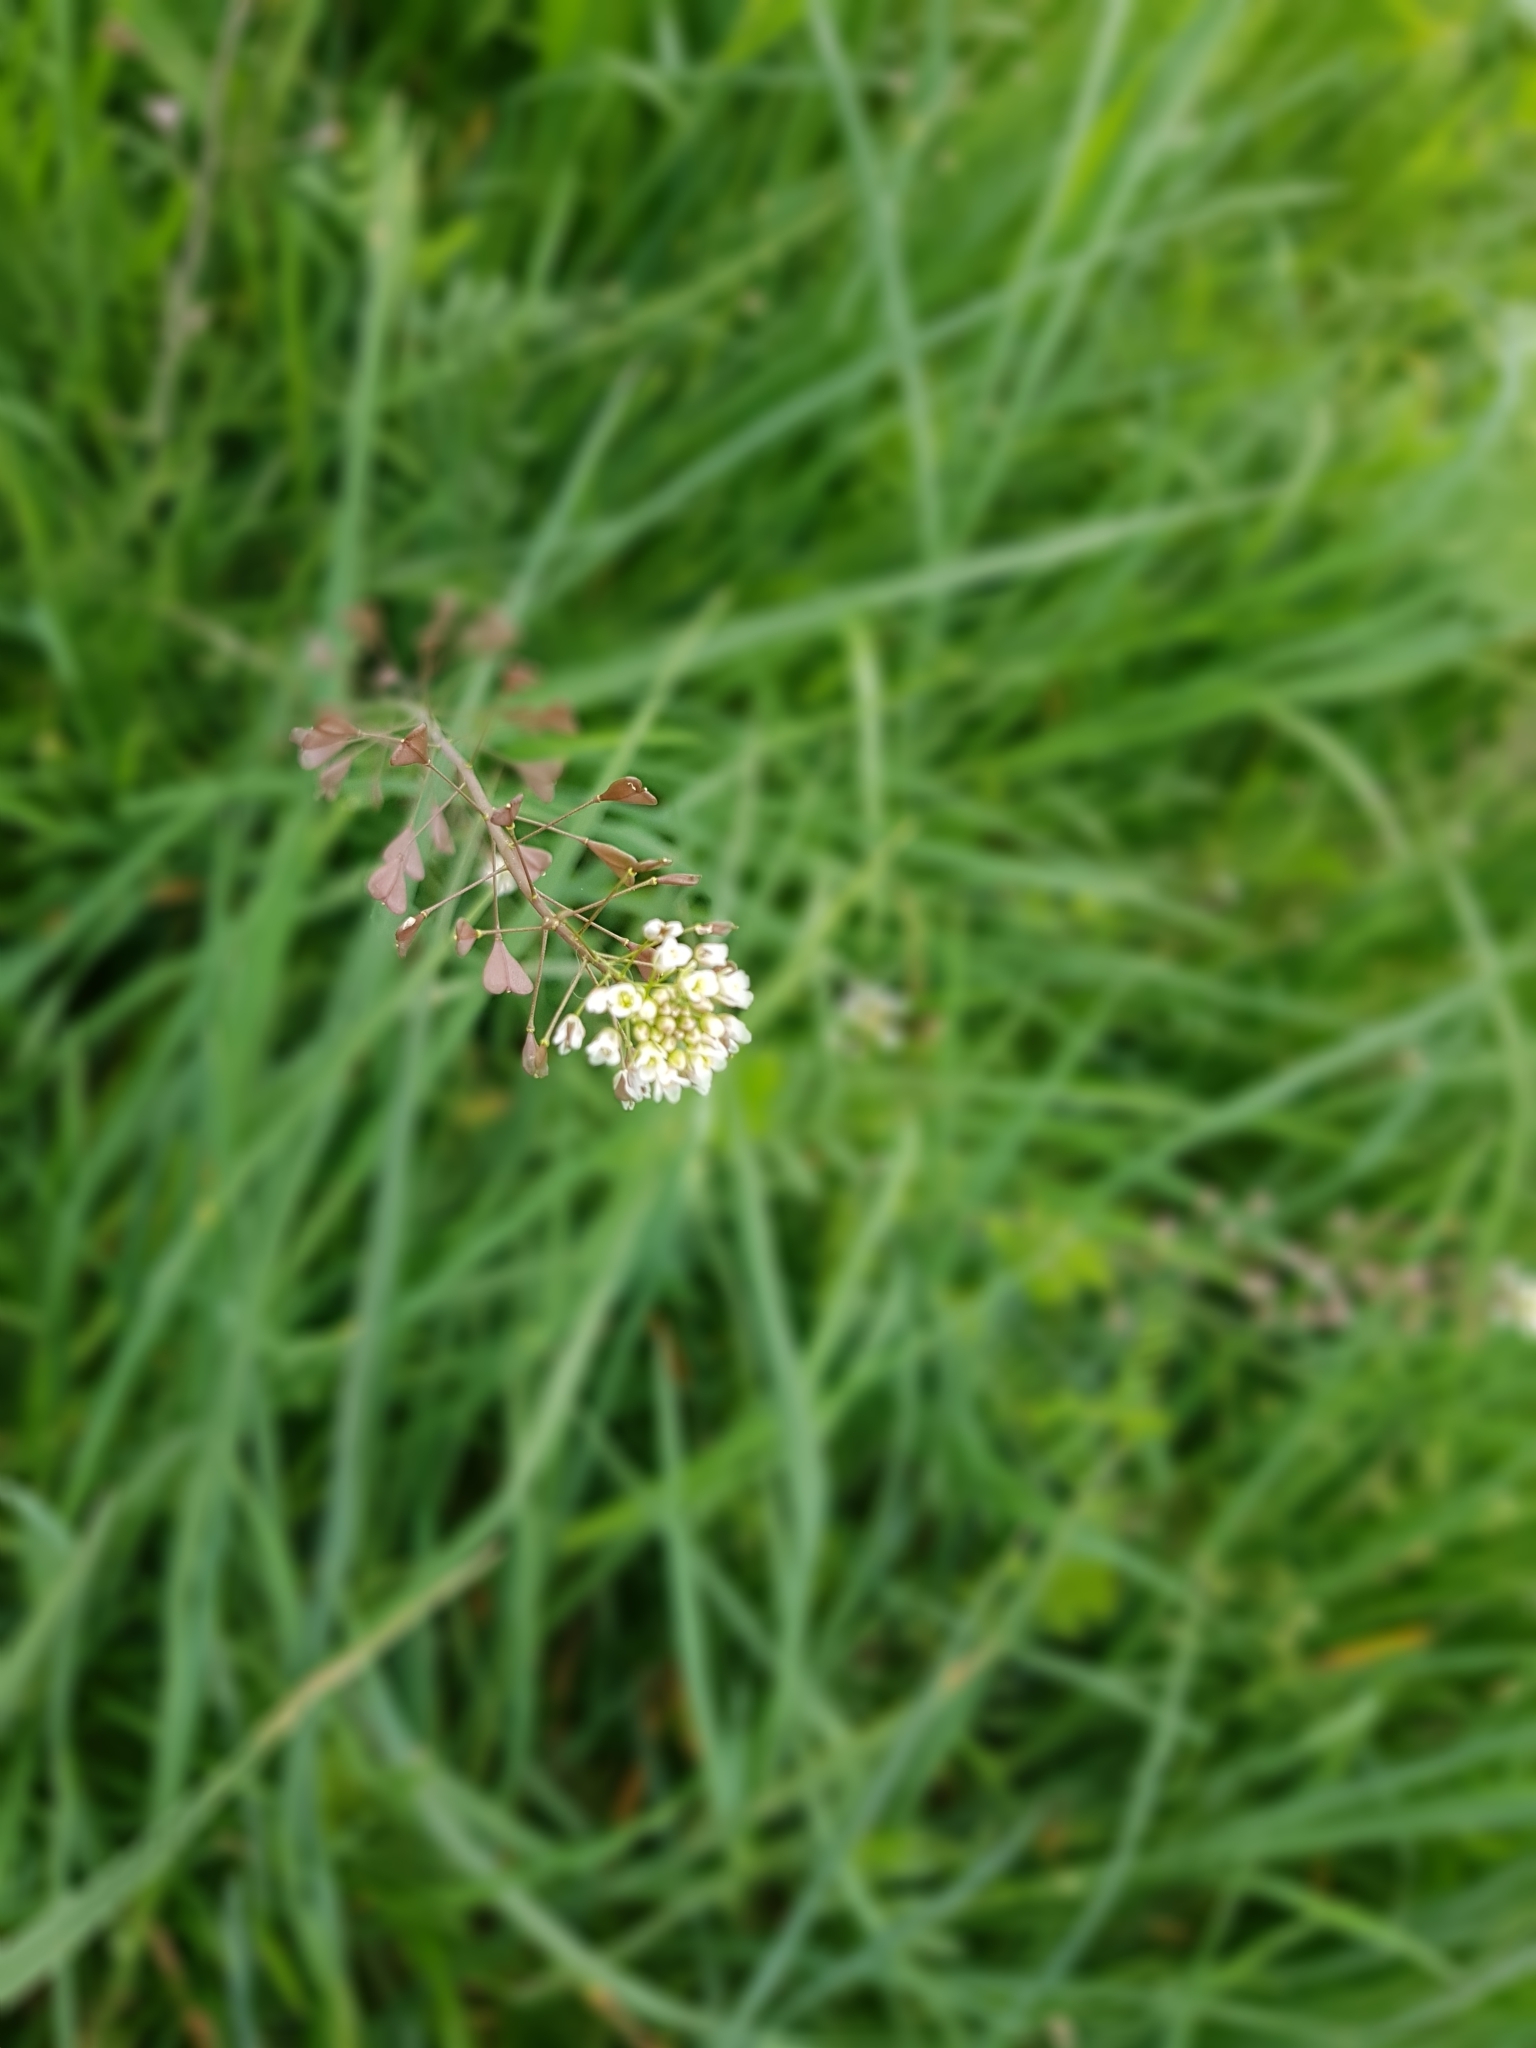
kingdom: Plantae
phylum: Tracheophyta
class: Magnoliopsida
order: Brassicales
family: Brassicaceae
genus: Capsella
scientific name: Capsella bursa-pastoris
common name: Shepherd's purse
